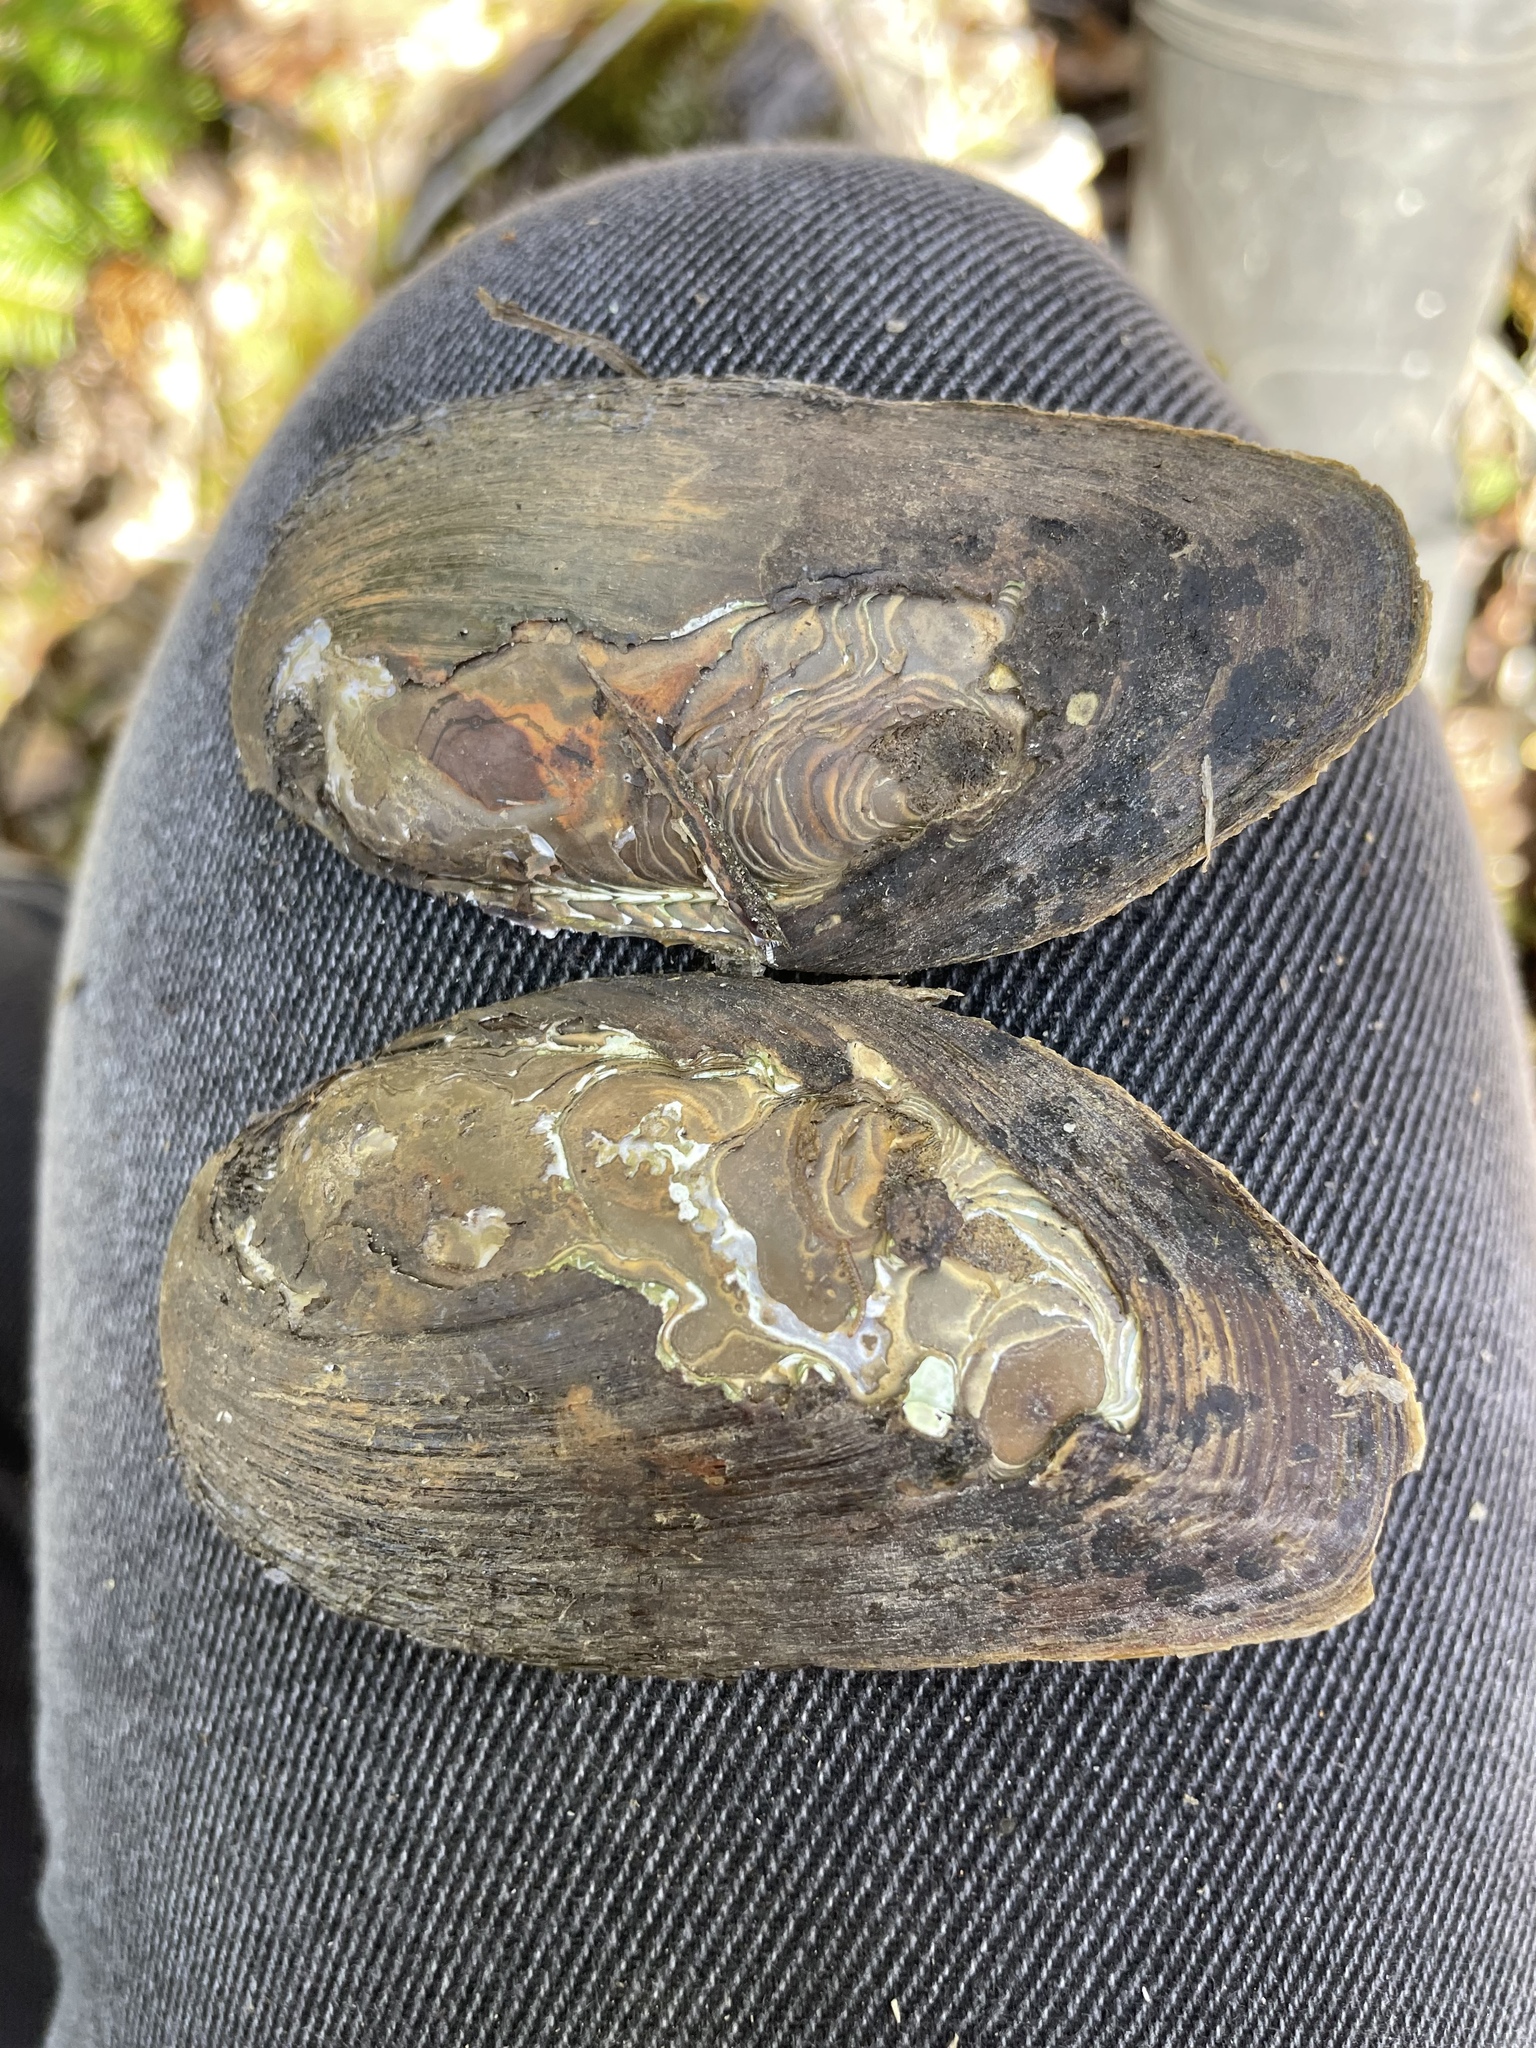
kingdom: Animalia
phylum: Mollusca
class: Bivalvia
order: Unionida
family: Unionidae
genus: Elliptio
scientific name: Elliptio complanata
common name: Eastern elliptio
